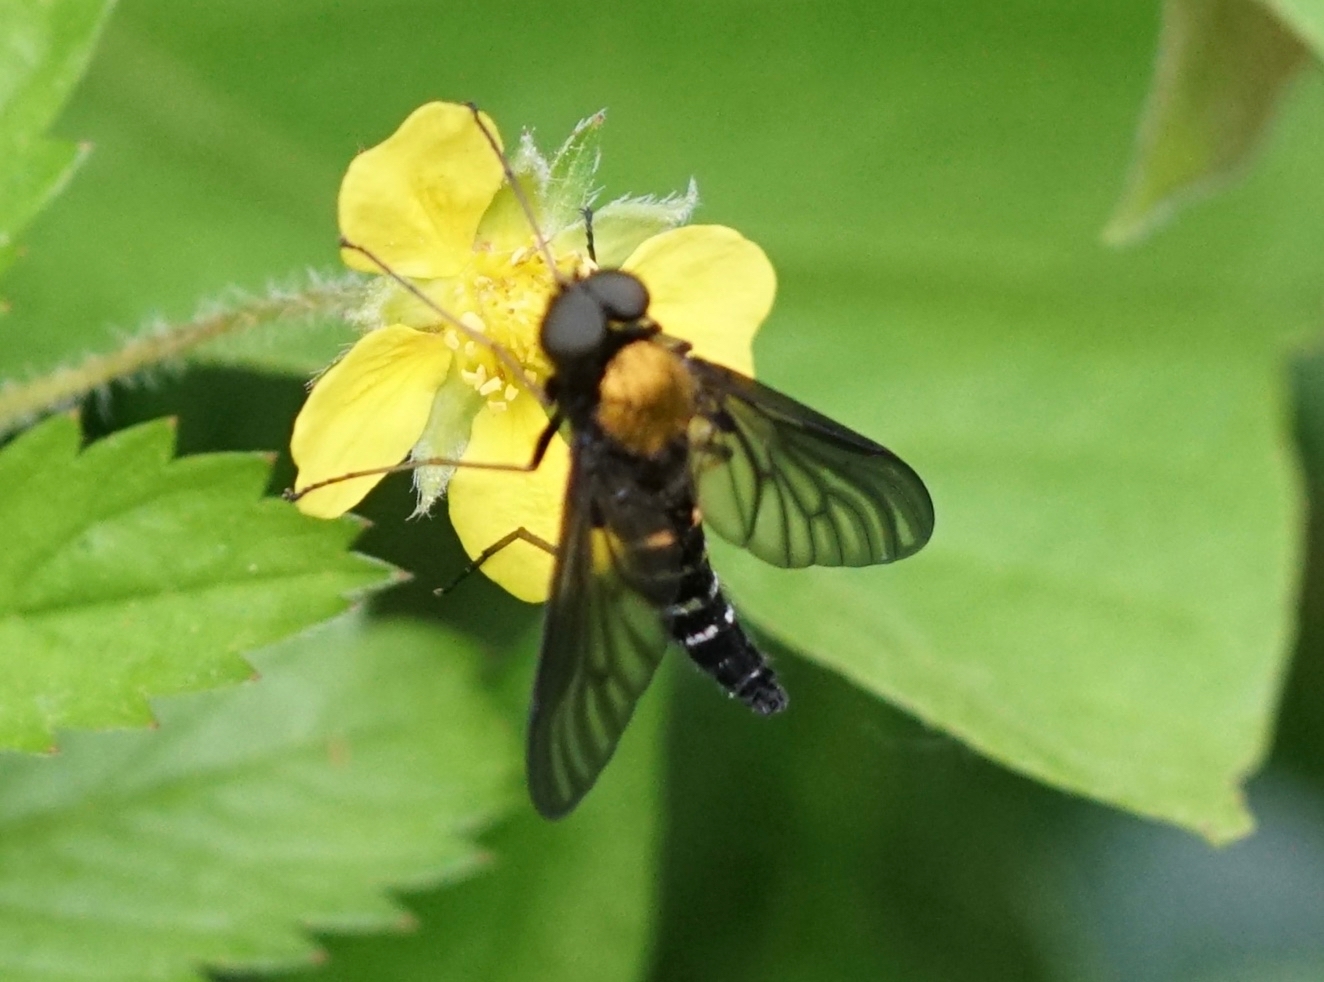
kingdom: Animalia
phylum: Arthropoda
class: Insecta
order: Diptera
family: Rhagionidae
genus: Chrysopilus
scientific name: Chrysopilus thoracicus
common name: Golden-backed snipe fly
